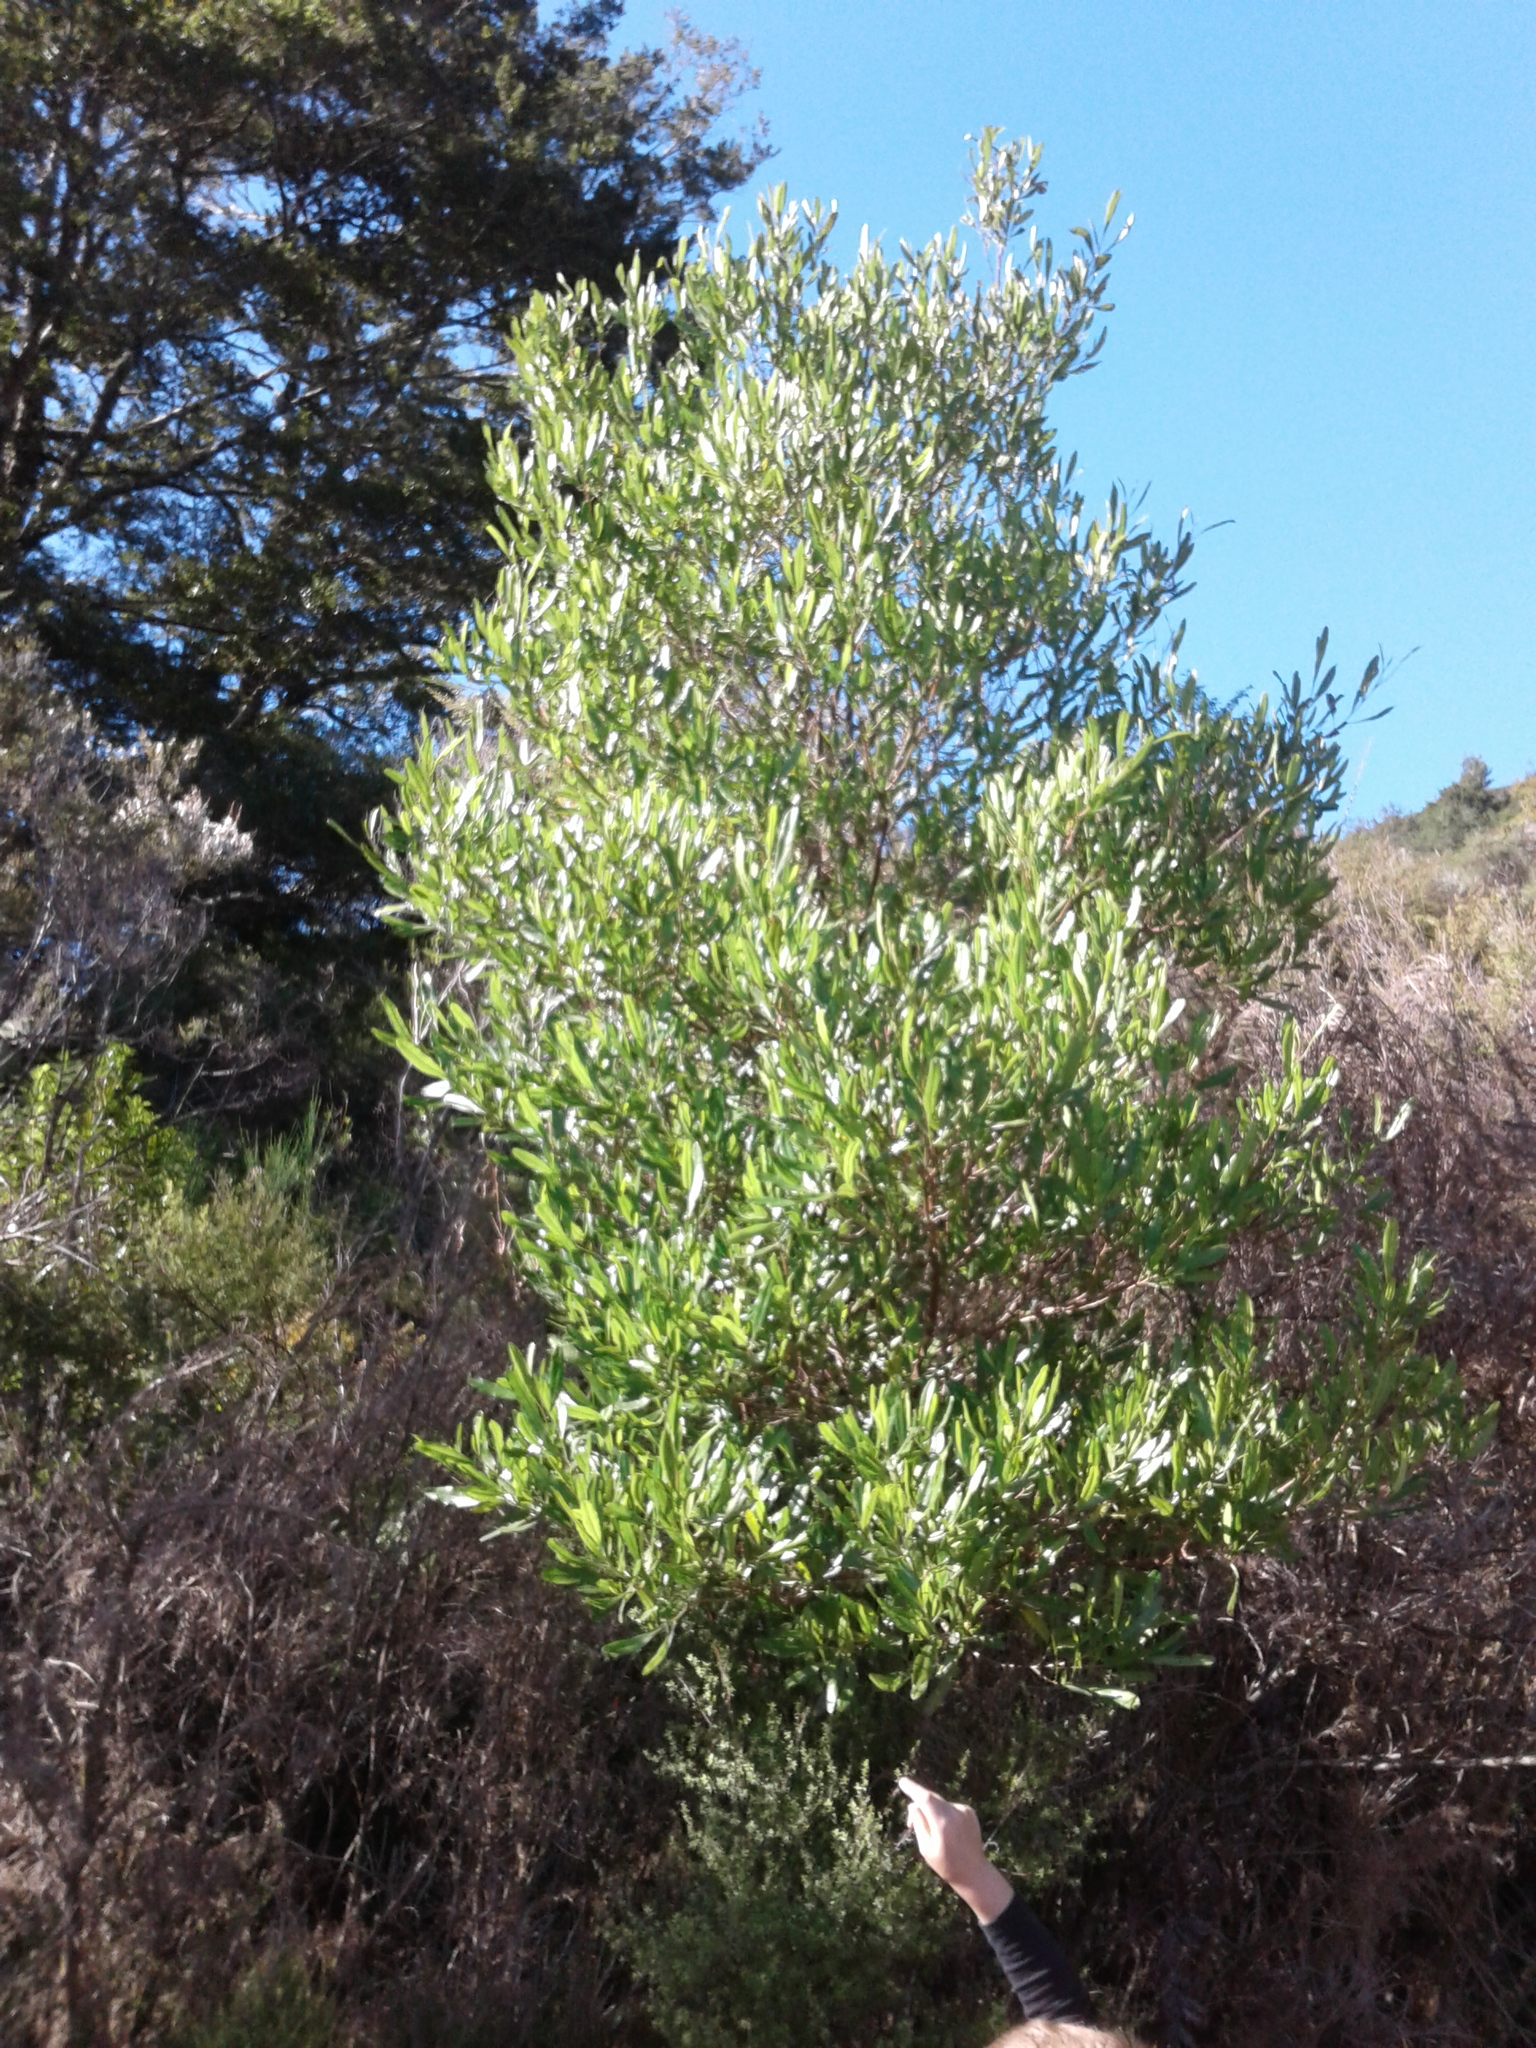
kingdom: Plantae
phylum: Tracheophyta
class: Magnoliopsida
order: Sapindales
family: Sapindaceae
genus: Dodonaea
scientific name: Dodonaea viscosa
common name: Hopbush
